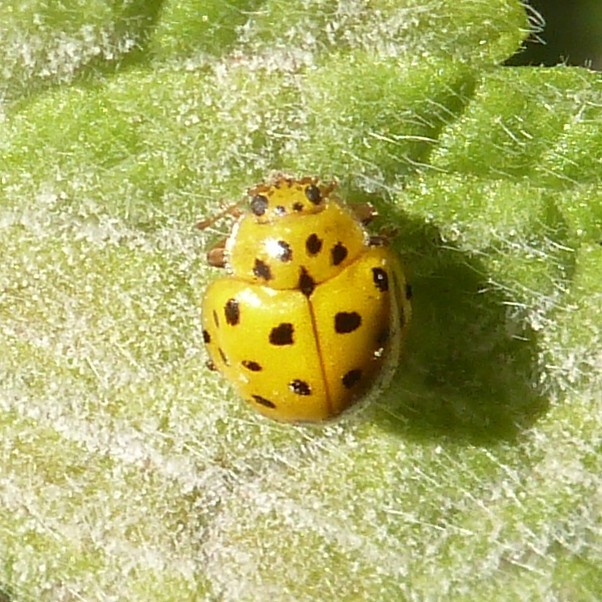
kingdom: Animalia
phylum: Arthropoda
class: Insecta
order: Coleoptera
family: Coccinellidae
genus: Psyllobora
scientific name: Psyllobora vigintiduopunctata
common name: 22-spot ladybird
